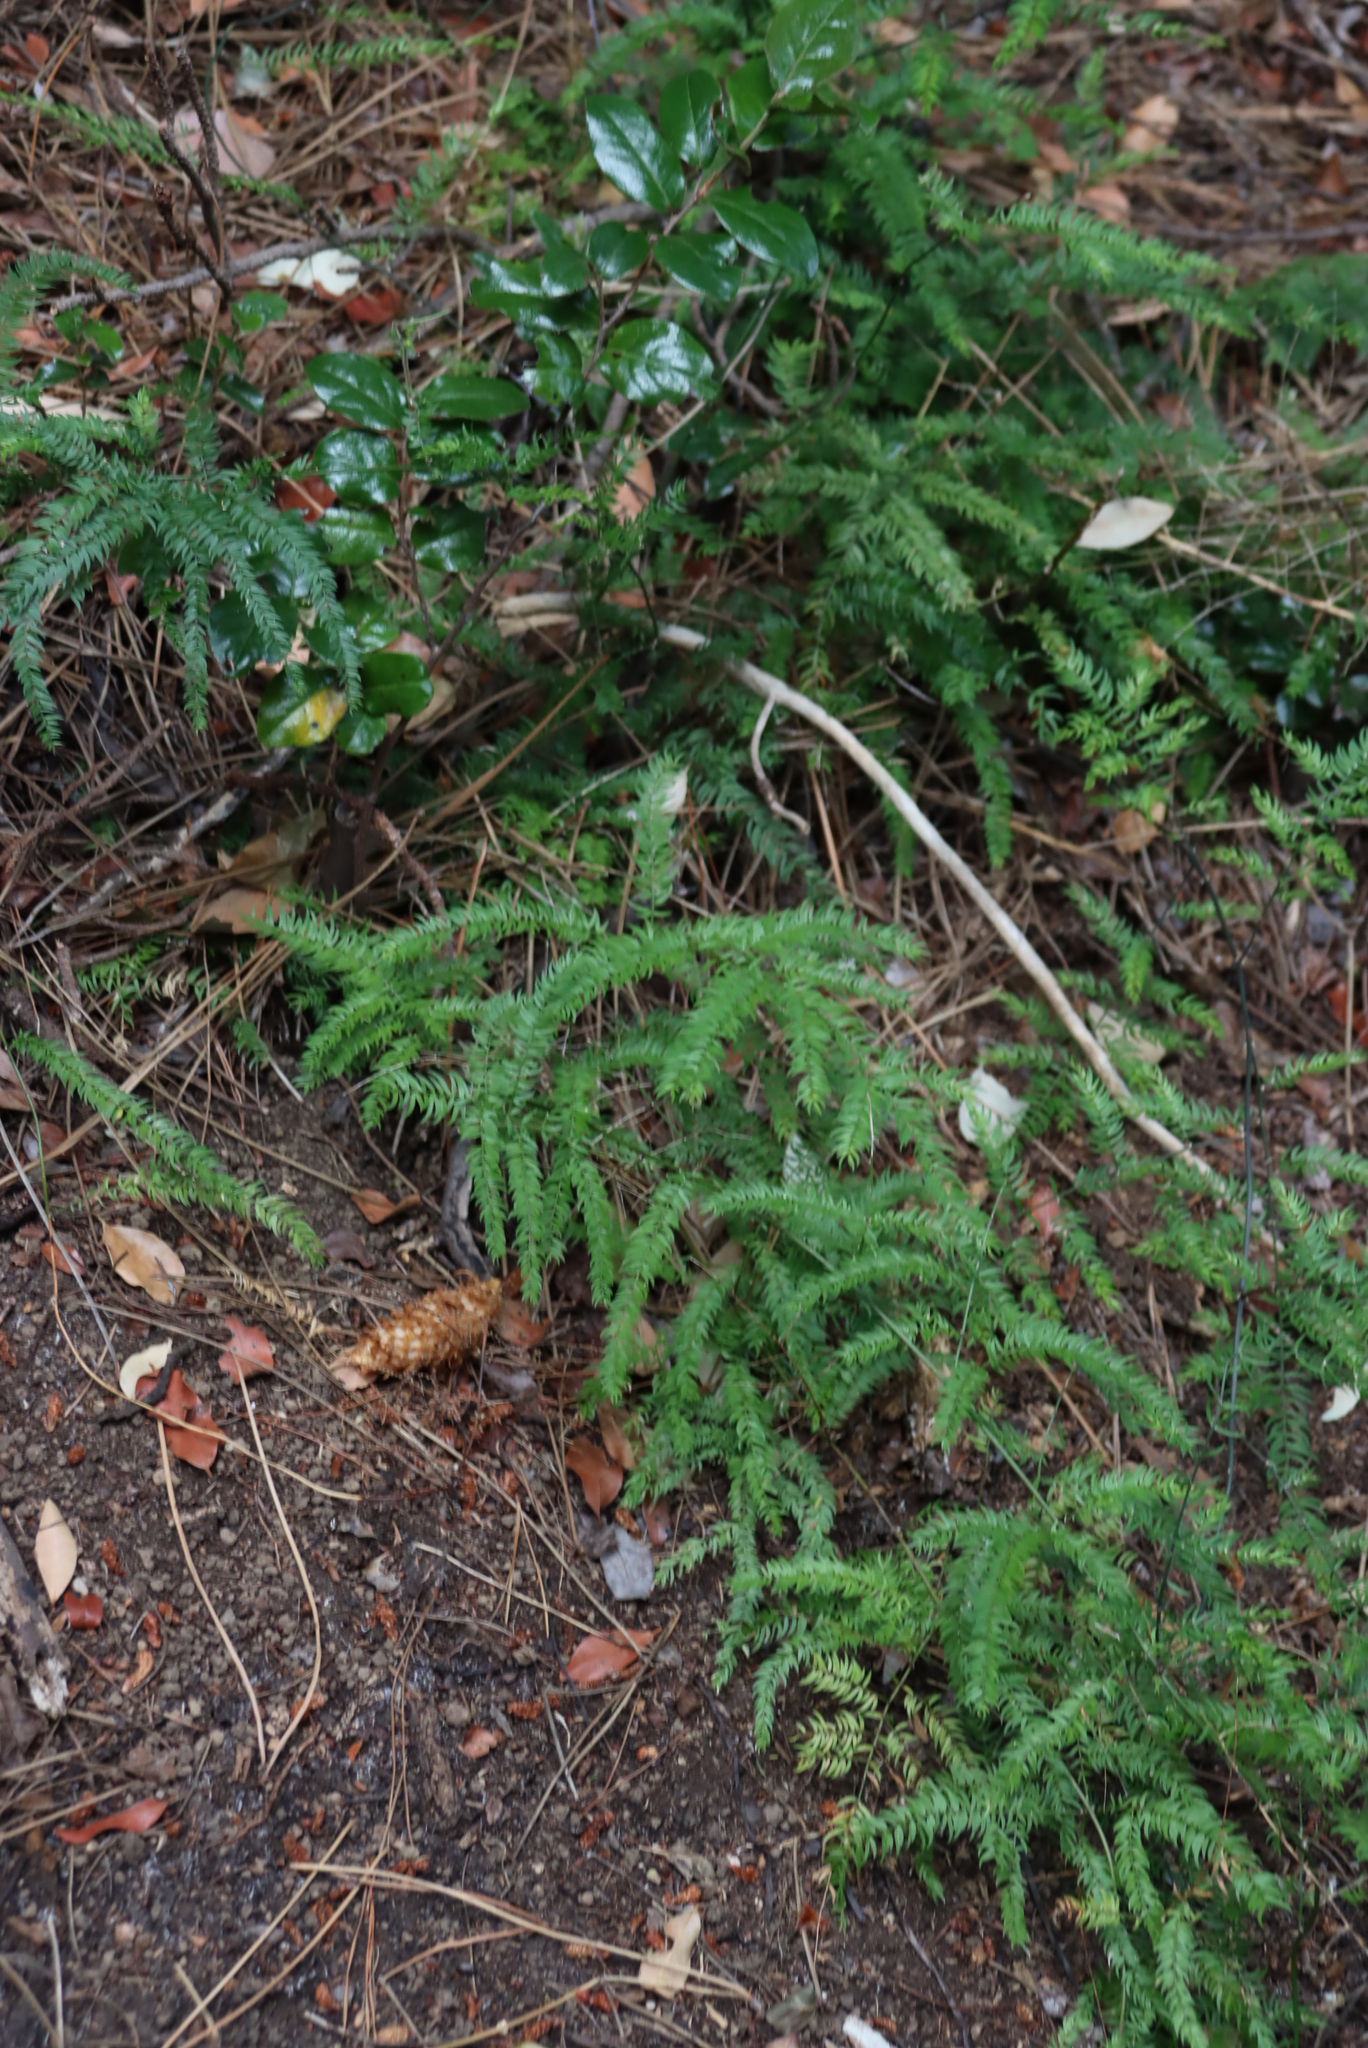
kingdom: Plantae
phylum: Tracheophyta
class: Liliopsida
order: Asparagales
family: Asparagaceae
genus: Asparagus
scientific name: Asparagus scandens
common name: Asparagus-fern
